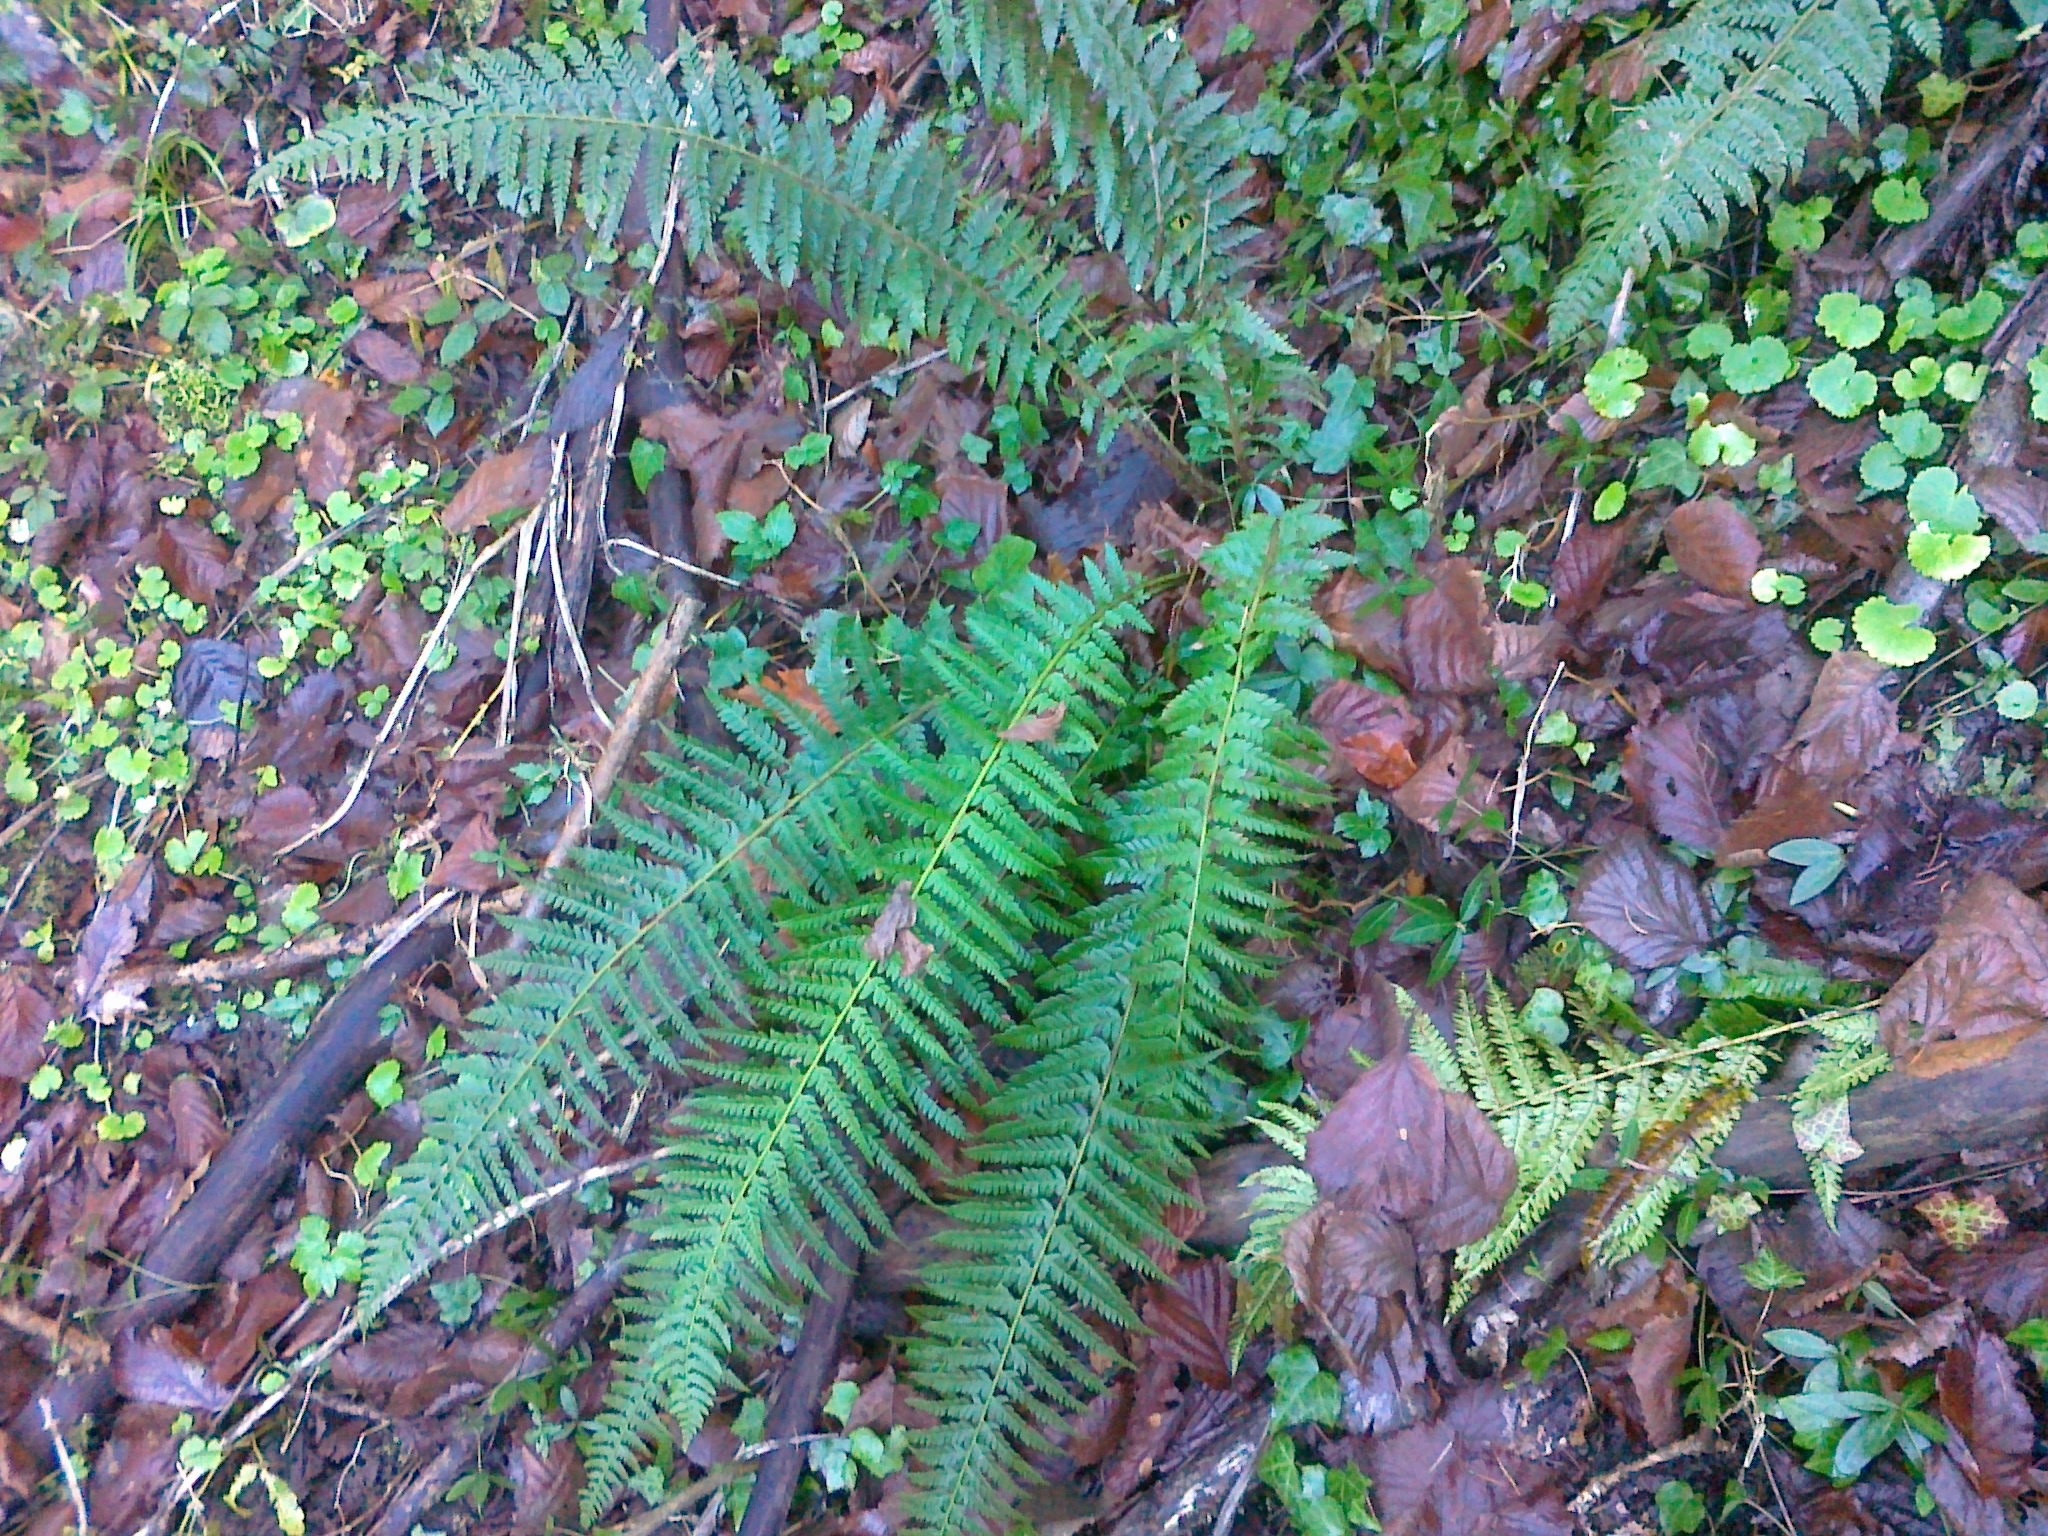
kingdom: Plantae
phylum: Tracheophyta
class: Polypodiopsida
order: Polypodiales
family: Dryopteridaceae
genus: Polystichum
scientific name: Polystichum aculeatum
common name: Hard shield-fern
